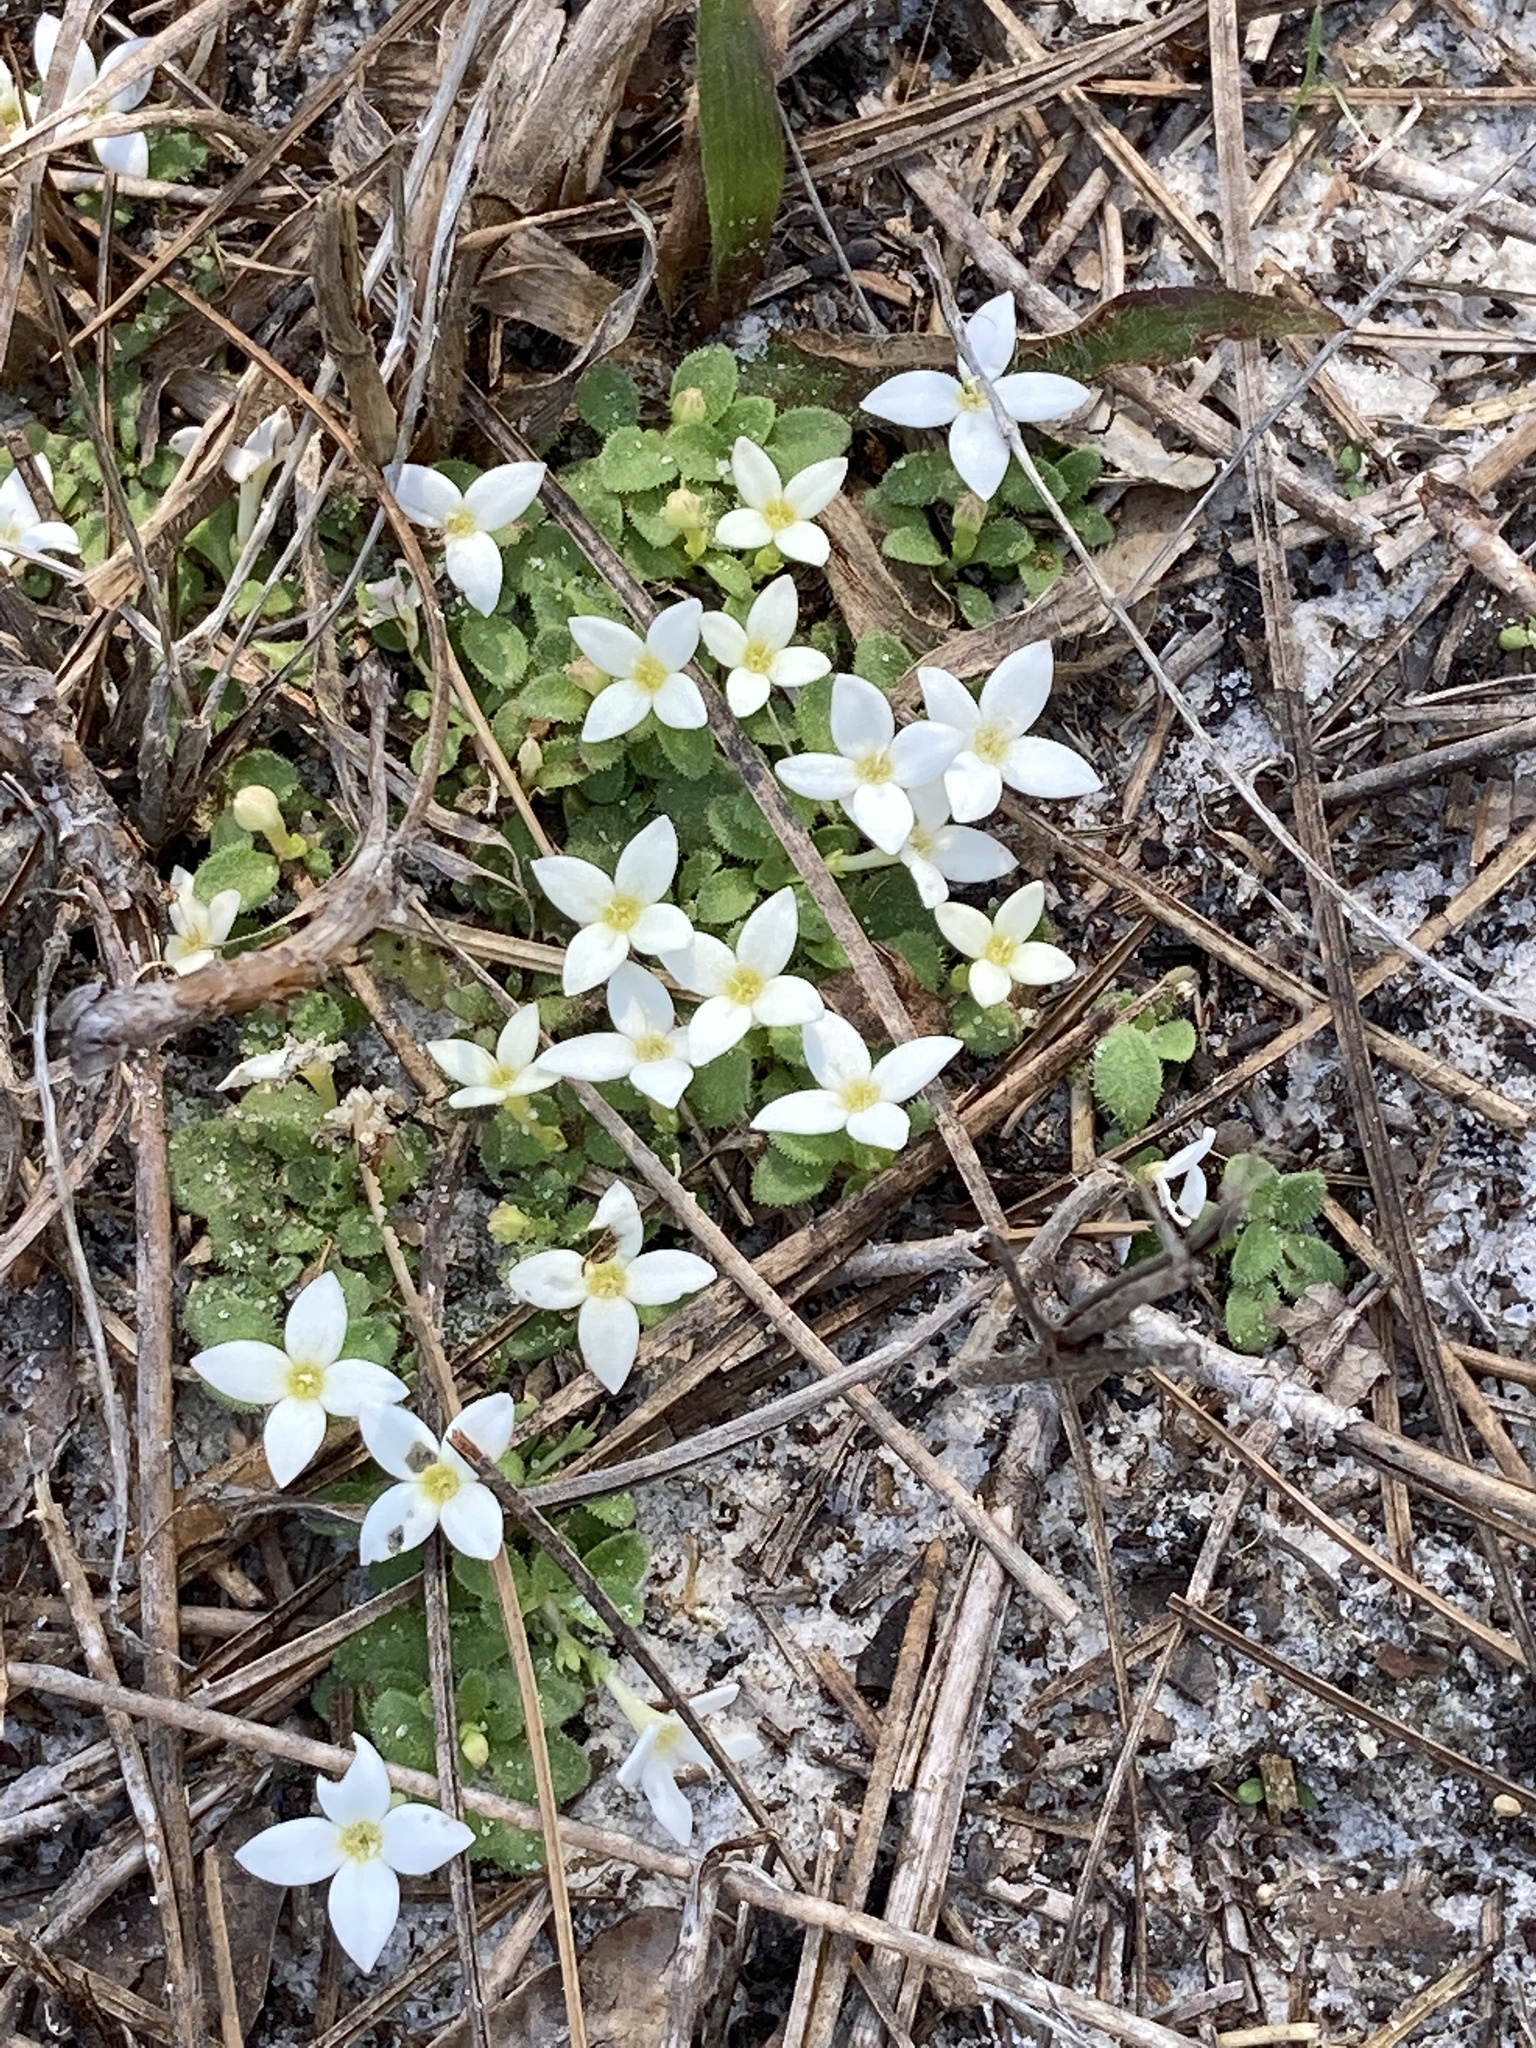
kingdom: Plantae
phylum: Tracheophyta
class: Magnoliopsida
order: Gentianales
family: Rubiaceae
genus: Houstonia
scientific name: Houstonia procumbens
